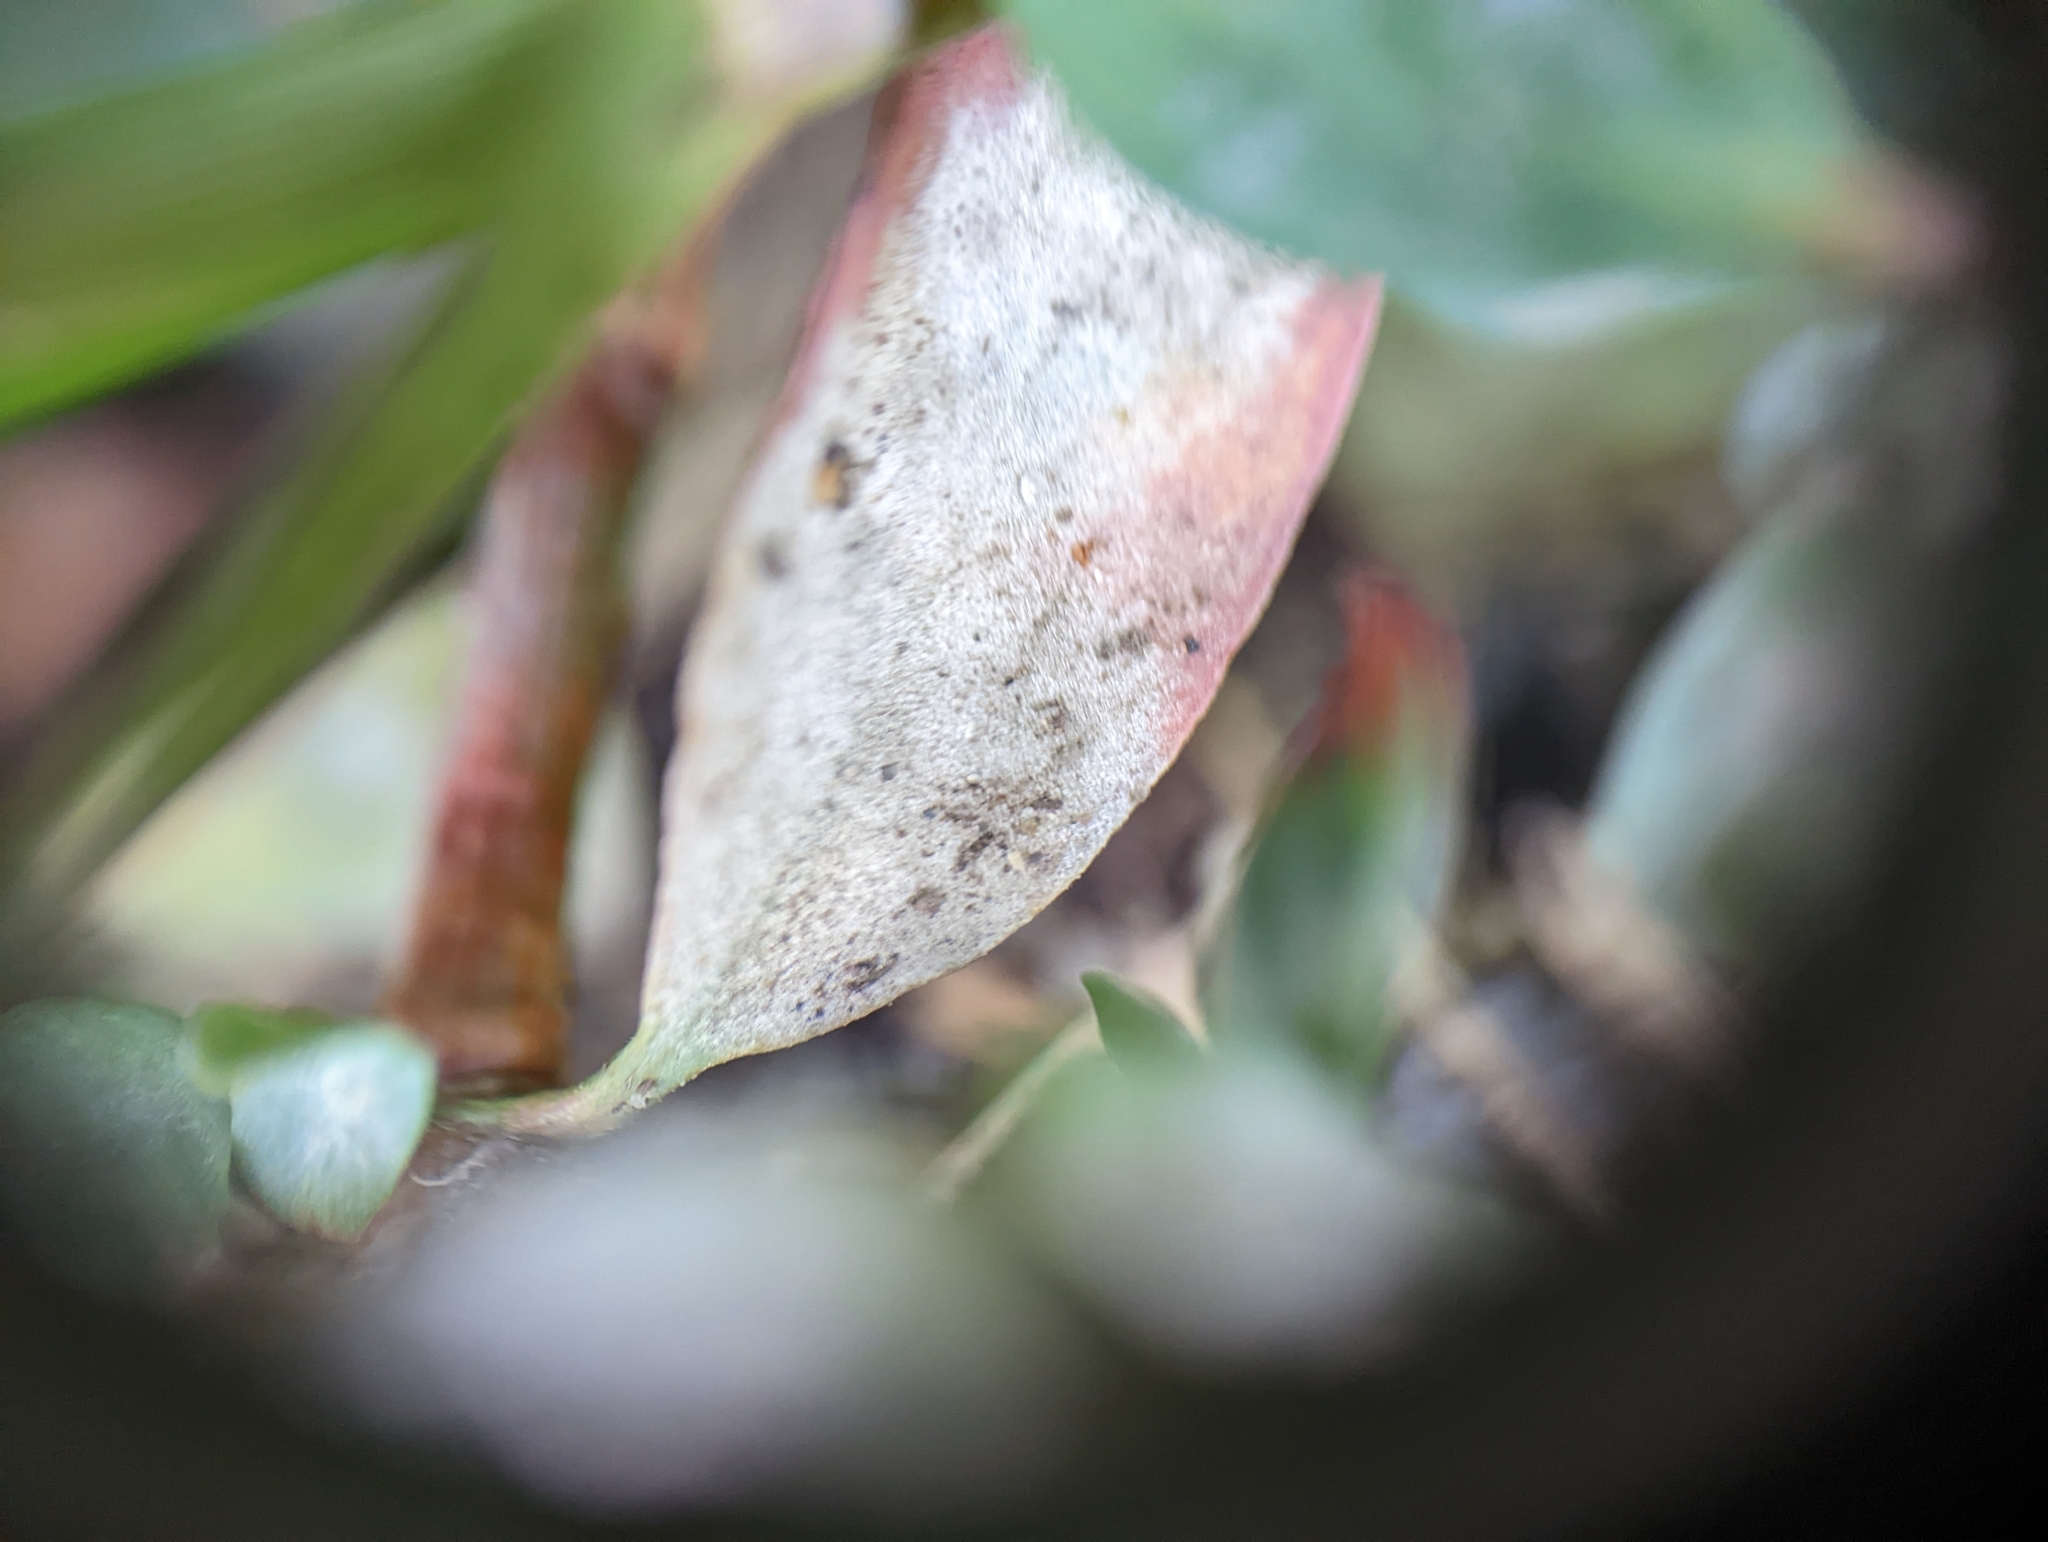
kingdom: Fungi
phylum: Ascomycota
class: Leotiomycetes
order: Helotiales
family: Erysiphaceae
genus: Erysiphe
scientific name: Erysiphe polygoni
